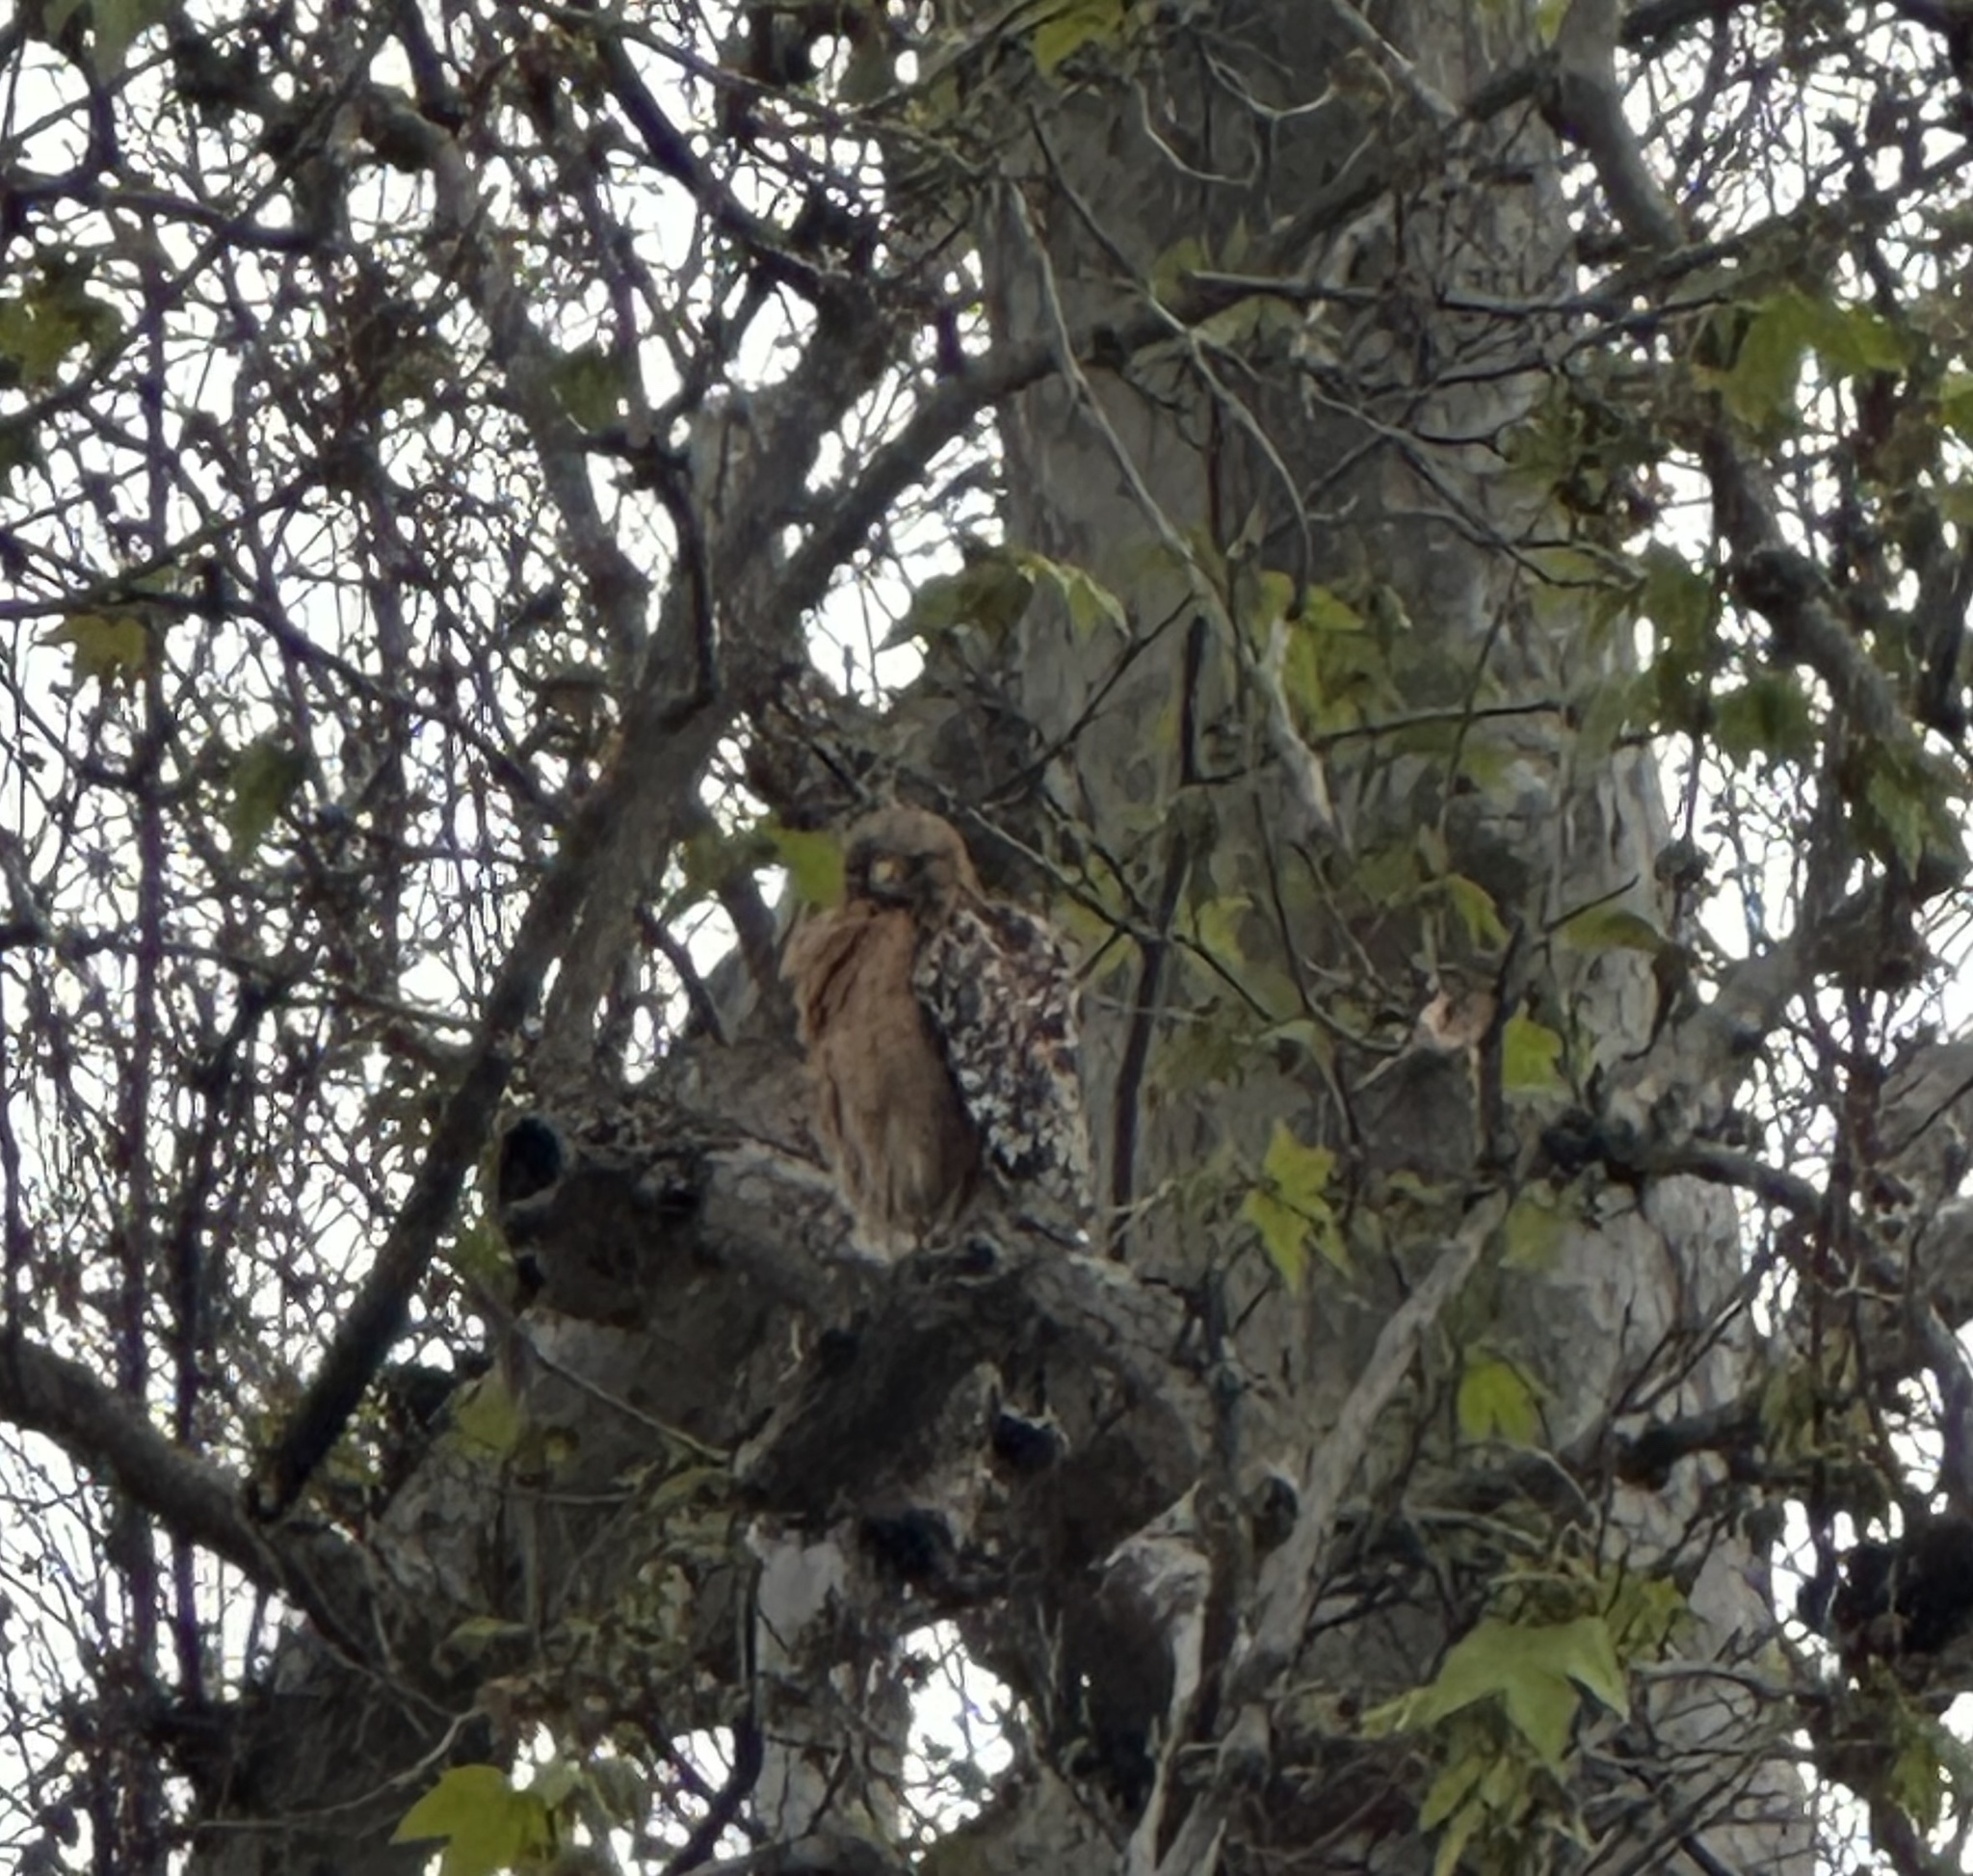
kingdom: Animalia
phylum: Chordata
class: Aves
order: Accipitriformes
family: Accipitridae
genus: Buteo
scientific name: Buteo lineatus
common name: Red-shouldered hawk
